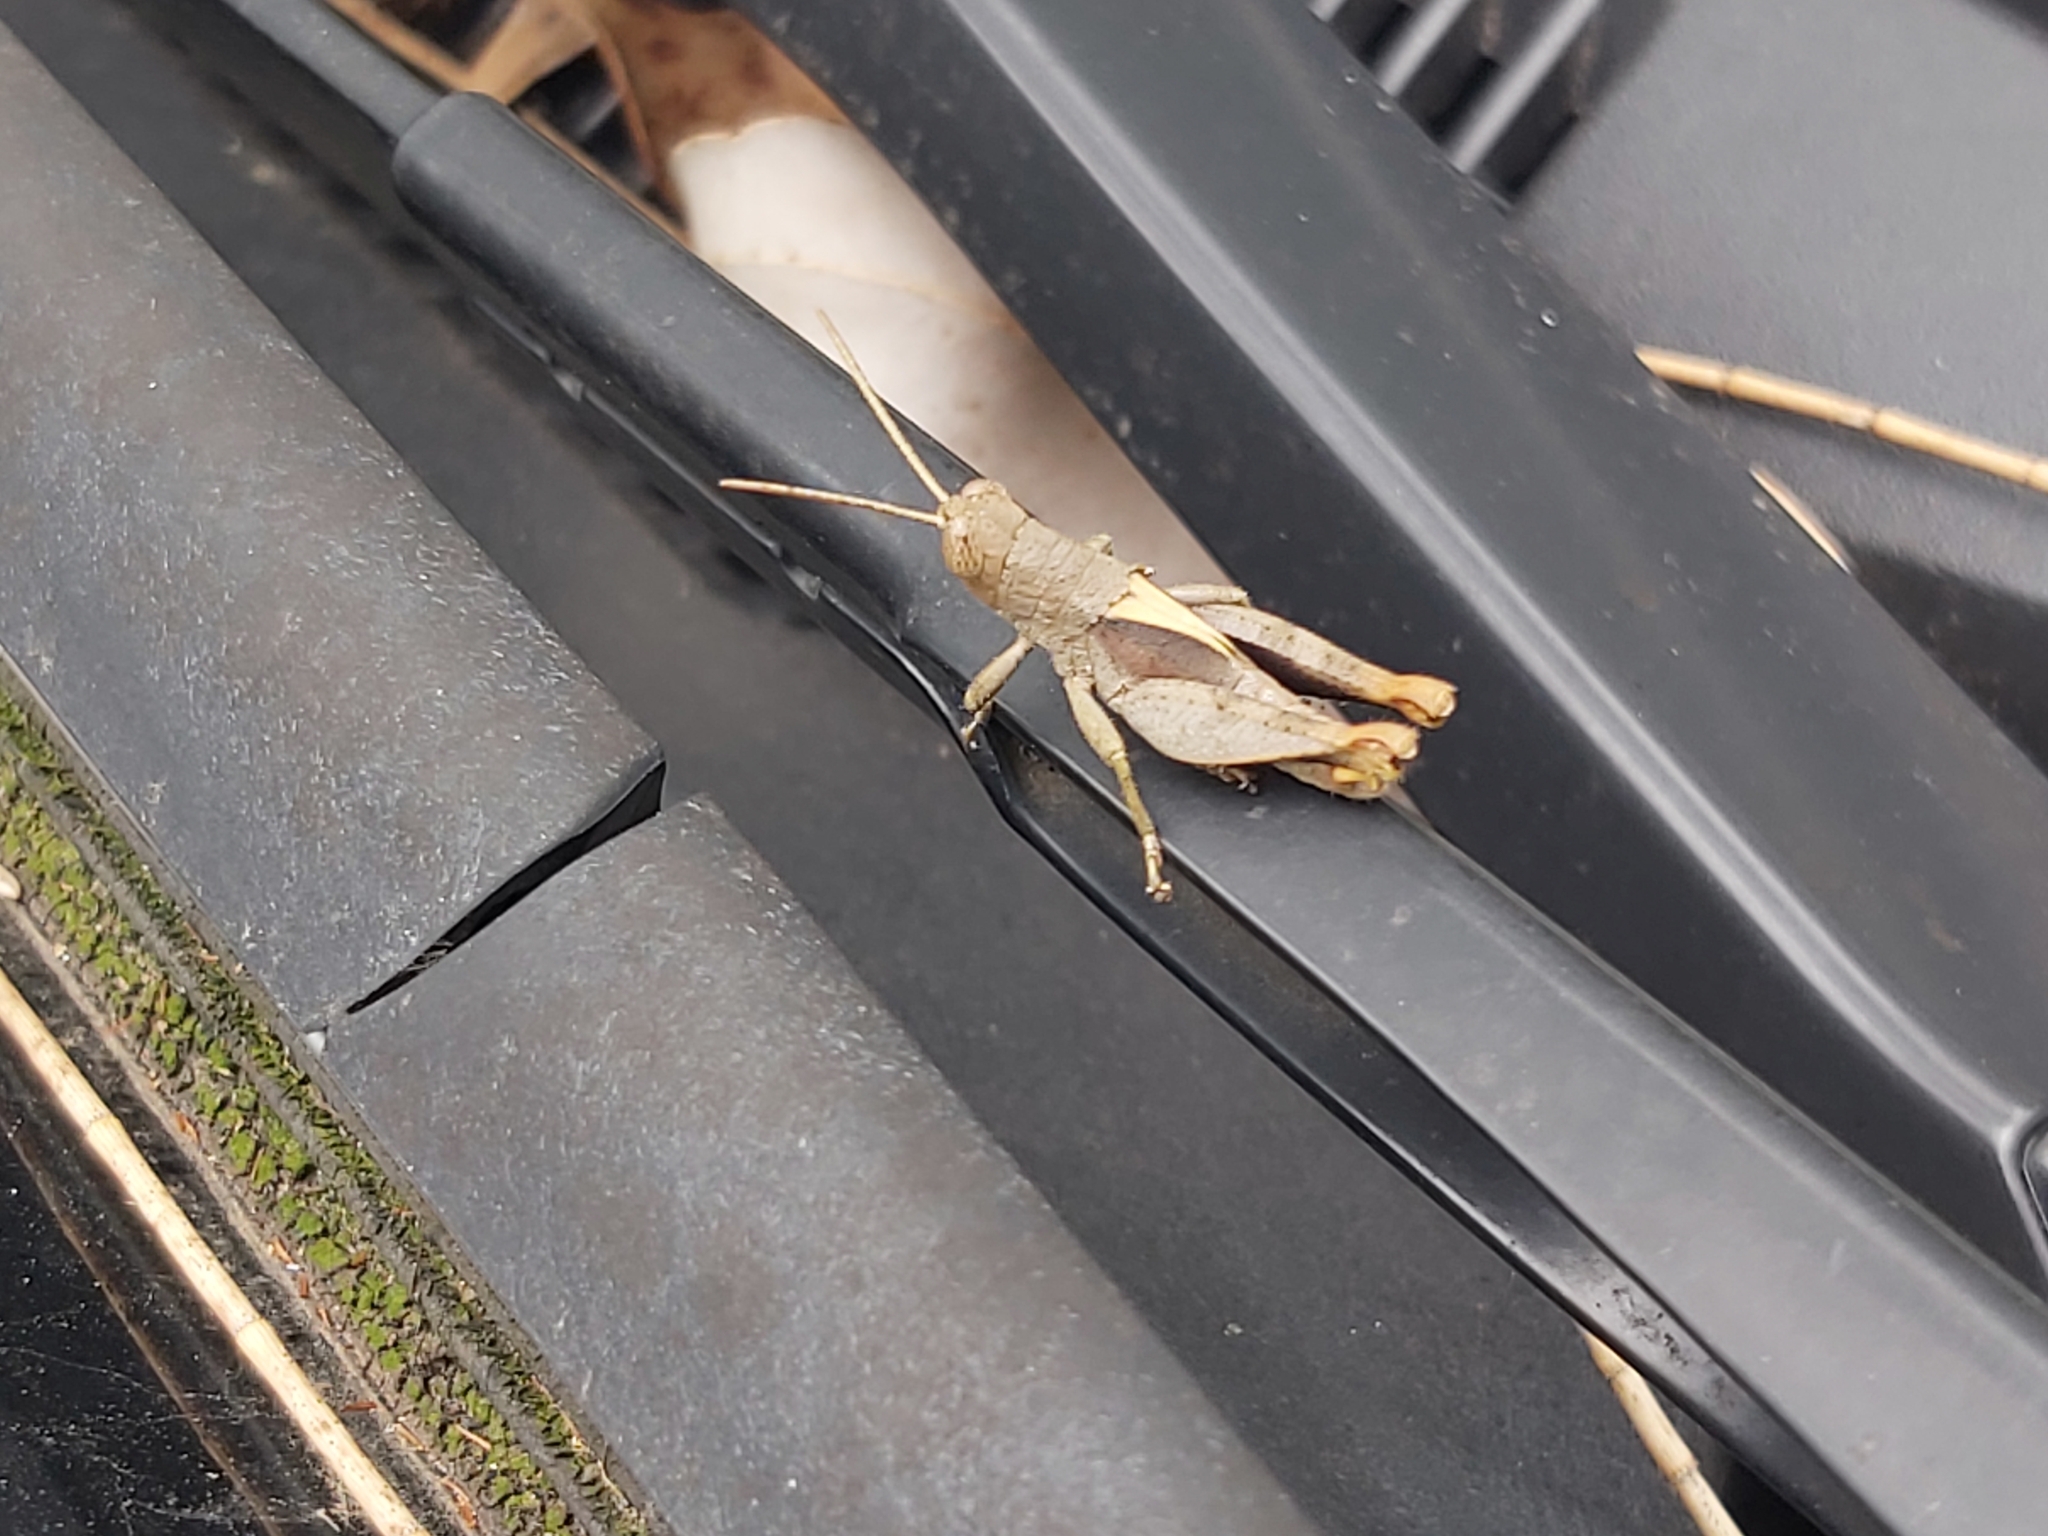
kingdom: Animalia
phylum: Arthropoda
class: Insecta
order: Orthoptera
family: Acrididae
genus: Rhitzala
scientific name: Rhitzala modesta
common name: Short-winged heath grasshopper
